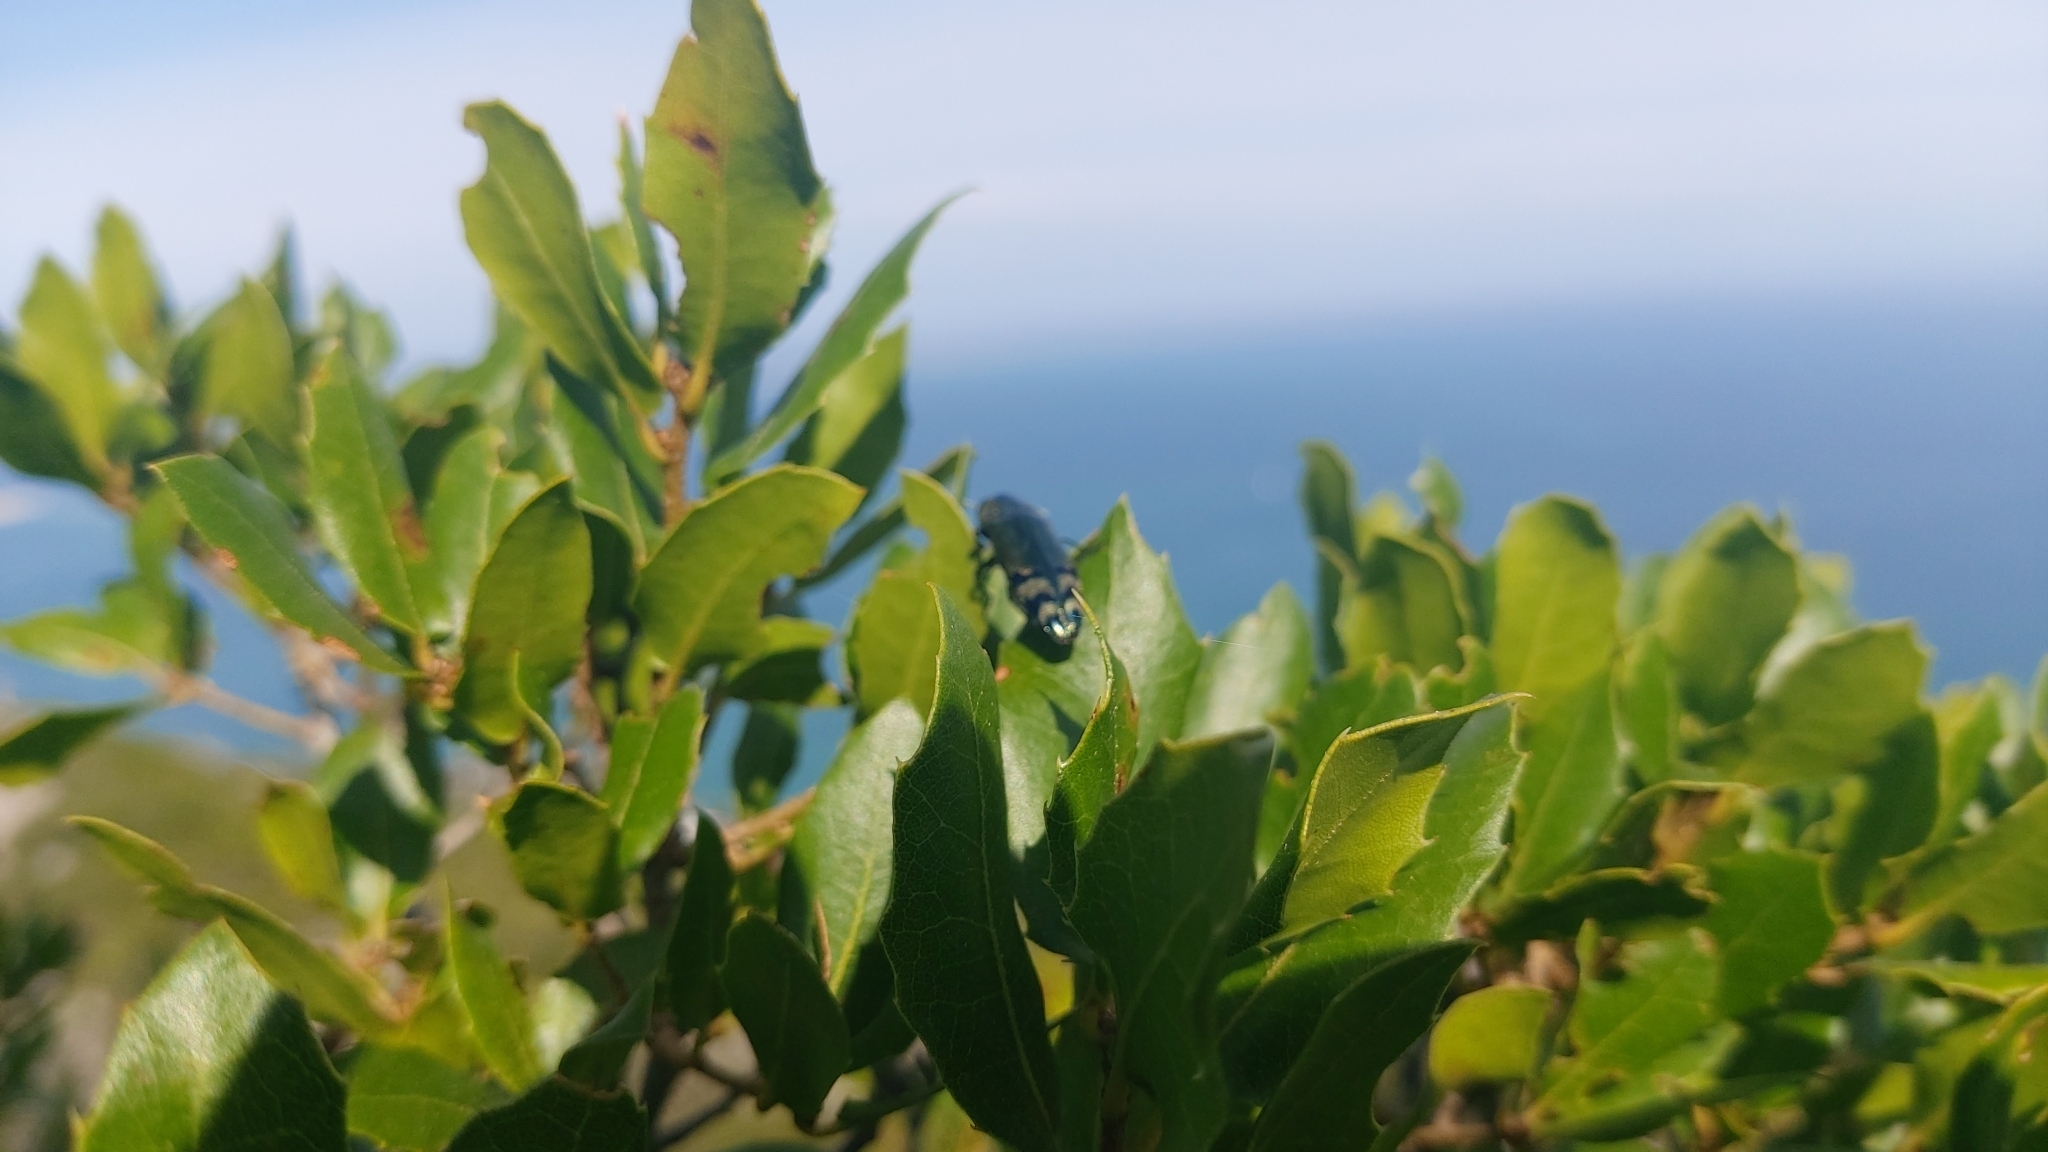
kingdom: Plantae
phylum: Tracheophyta
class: Magnoliopsida
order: Fagales
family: Fagaceae
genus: Quercus
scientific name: Quercus coccifera
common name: Kermes oak
